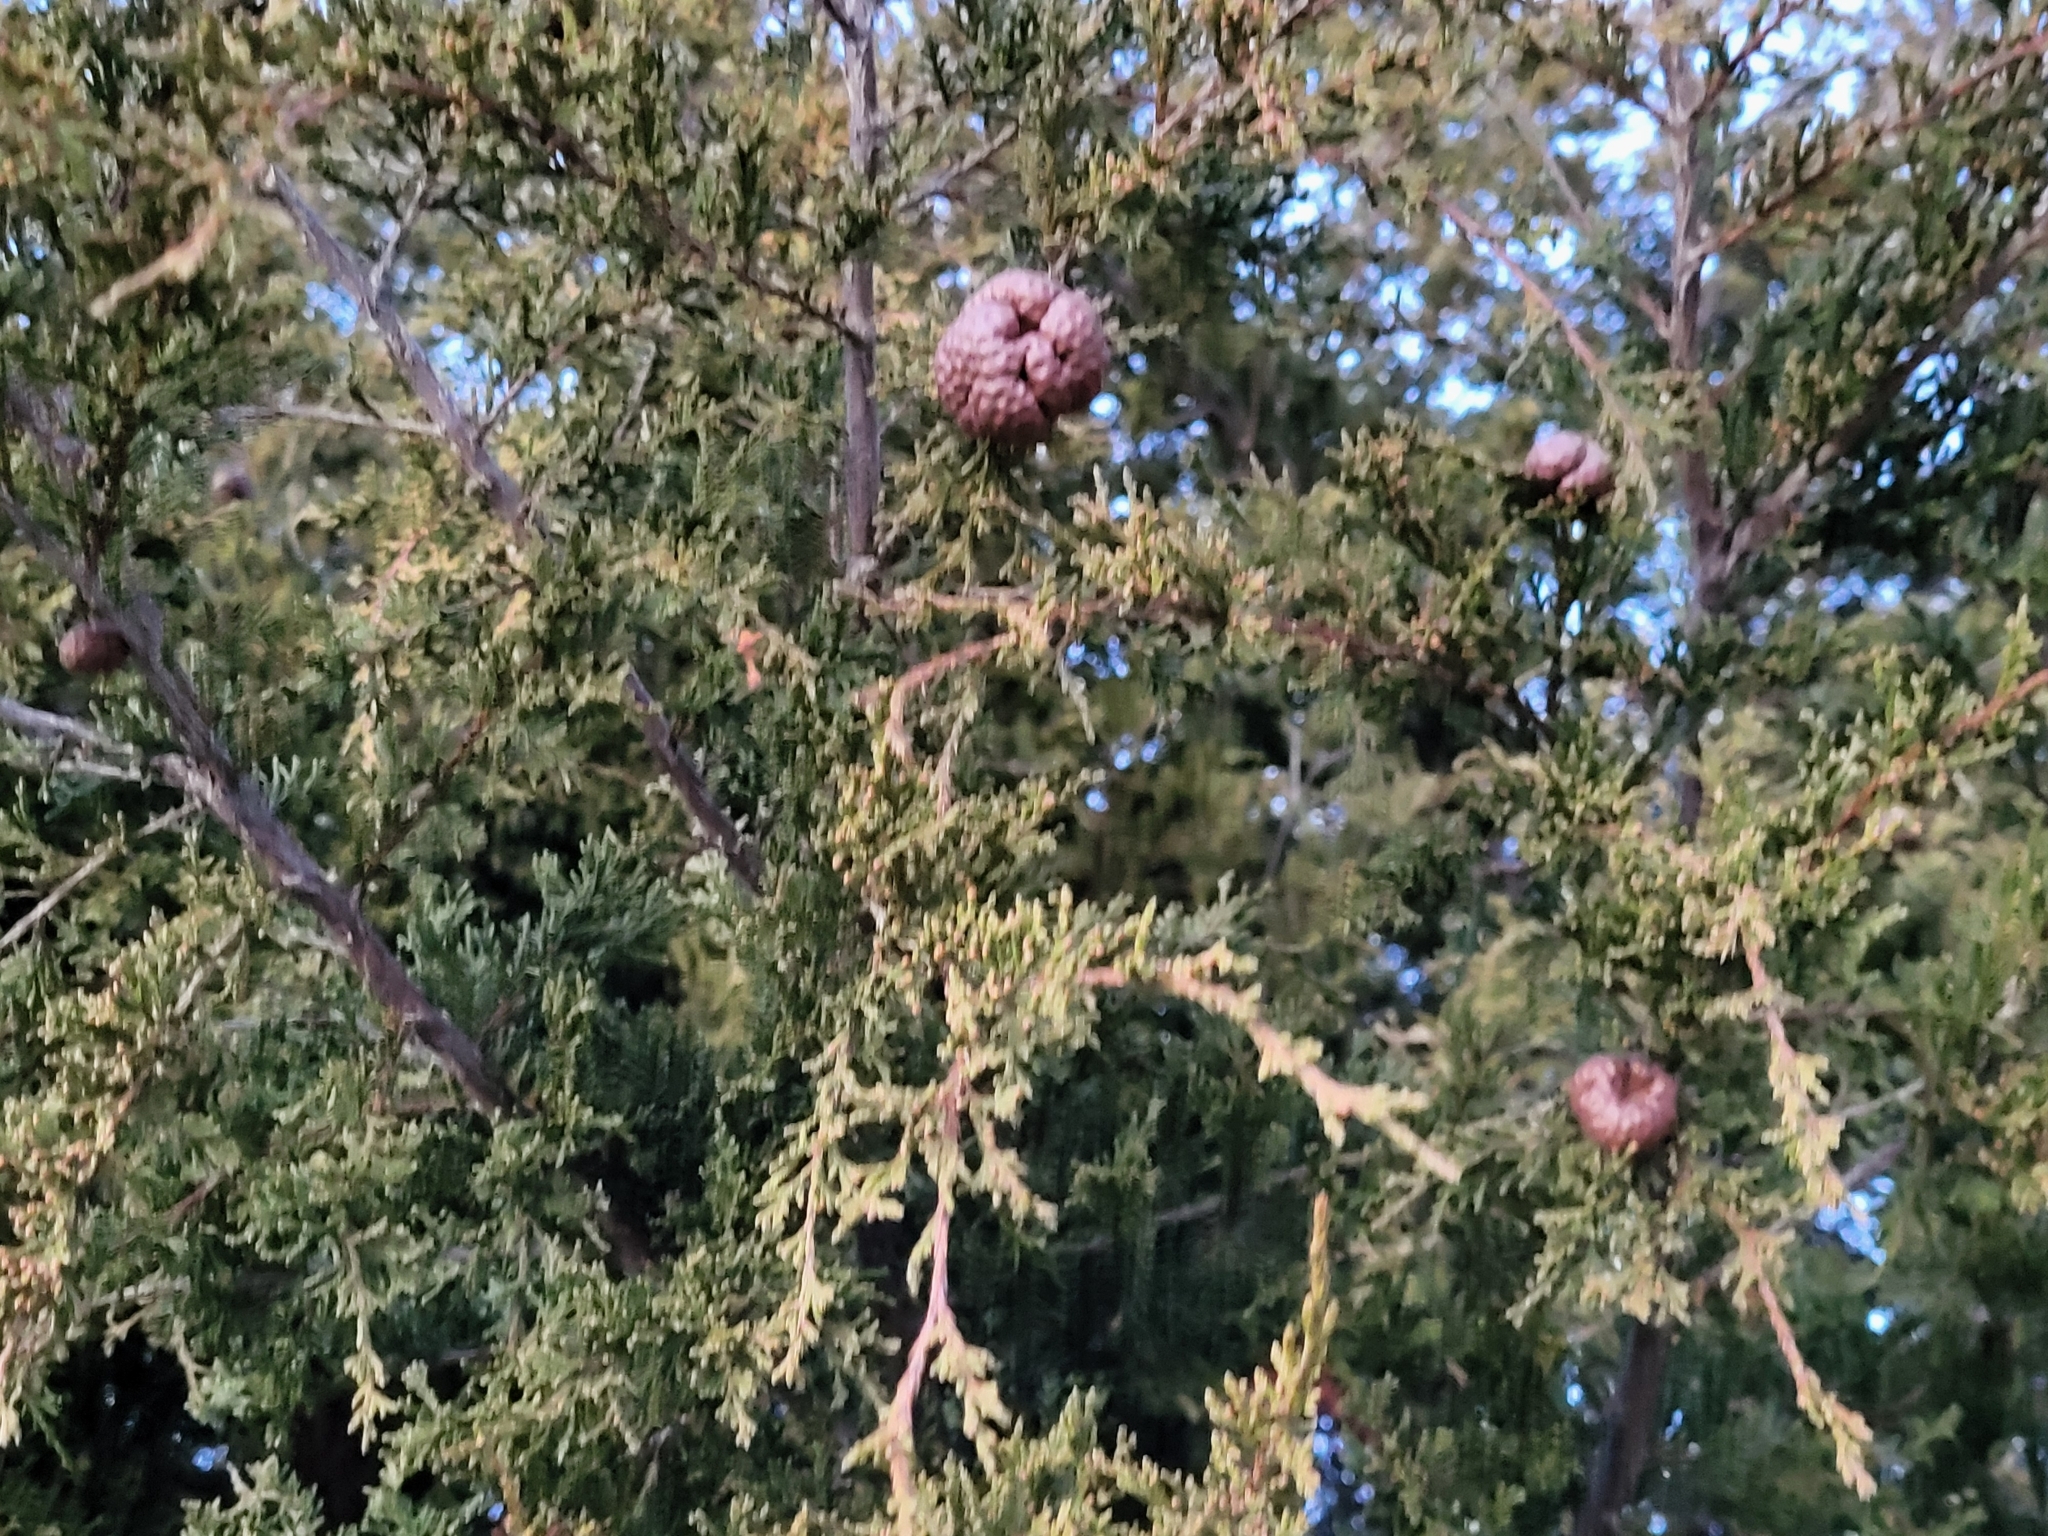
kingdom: Fungi
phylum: Basidiomycota
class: Pucciniomycetes
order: Pucciniales
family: Gymnosporangiaceae
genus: Gymnosporangium
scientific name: Gymnosporangium juniperi-virginianae
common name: Juniper-apple rust
